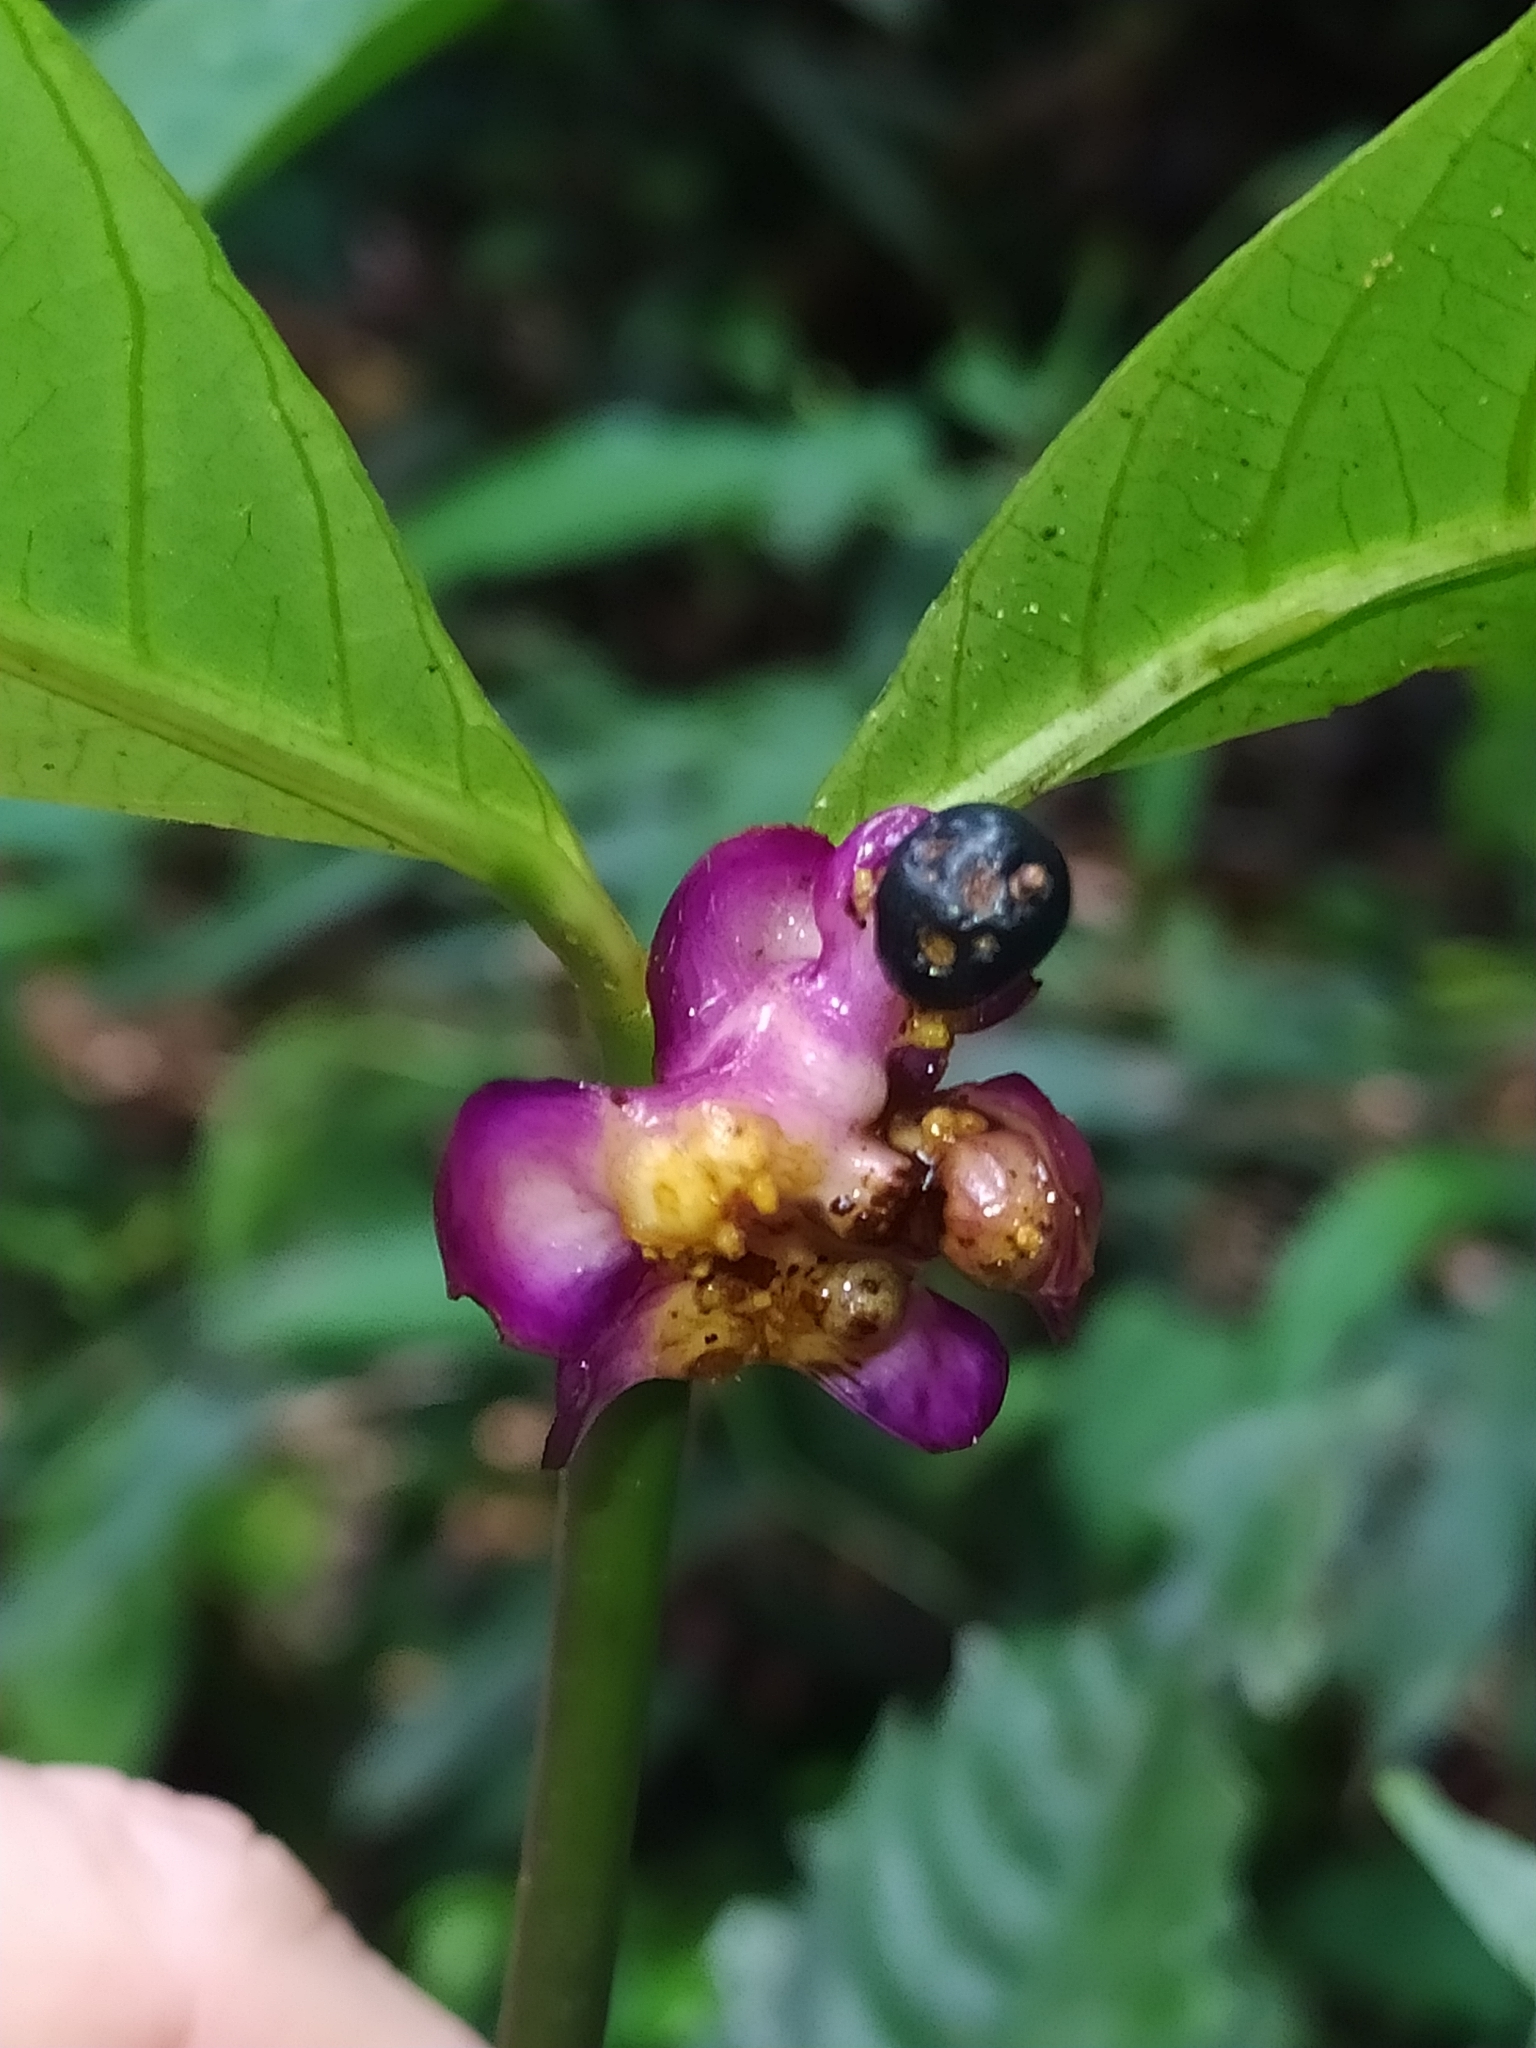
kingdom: Plantae
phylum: Tracheophyta
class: Magnoliopsida
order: Gentianales
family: Rubiaceae
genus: Palicourea
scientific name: Palicourea dichotoma
